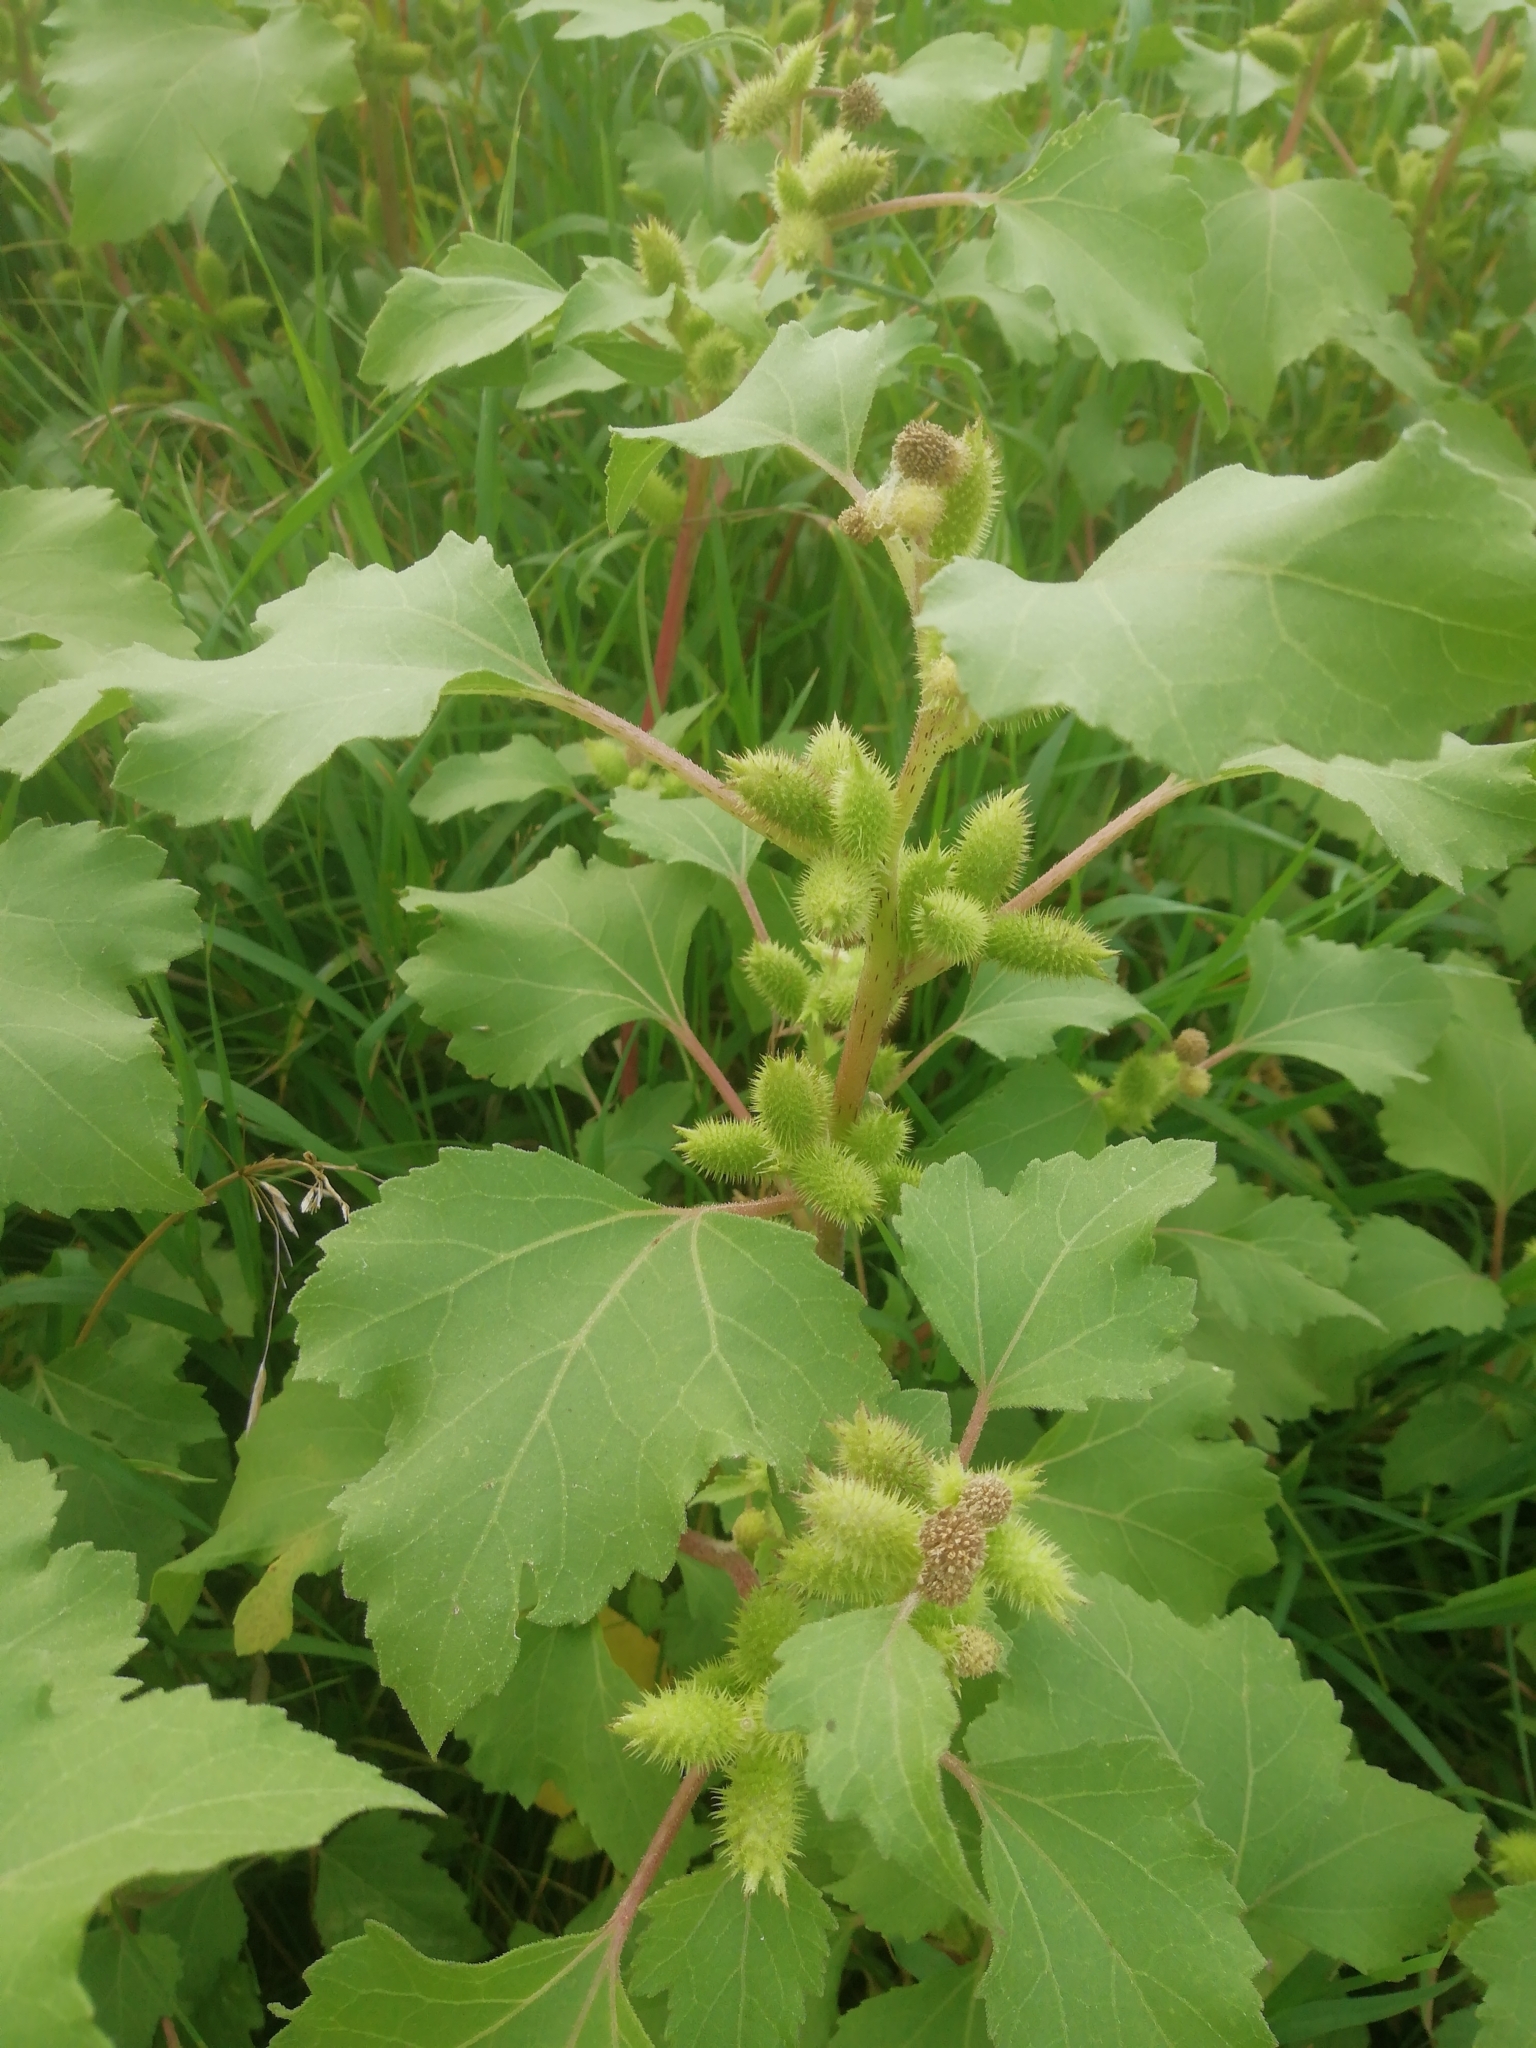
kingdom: Plantae
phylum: Tracheophyta
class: Magnoliopsida
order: Asterales
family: Asteraceae
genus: Xanthium
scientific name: Xanthium orientale
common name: Californian burr
